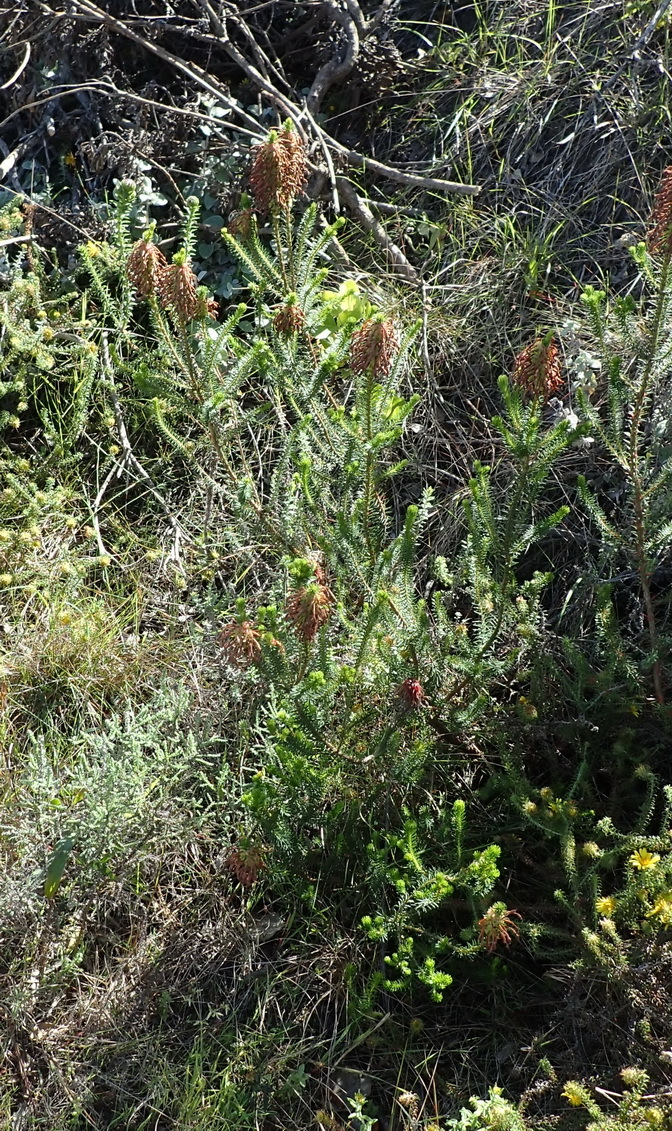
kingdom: Plantae
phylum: Tracheophyta
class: Magnoliopsida
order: Ericales
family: Ericaceae
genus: Erica
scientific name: Erica sessiliflora
